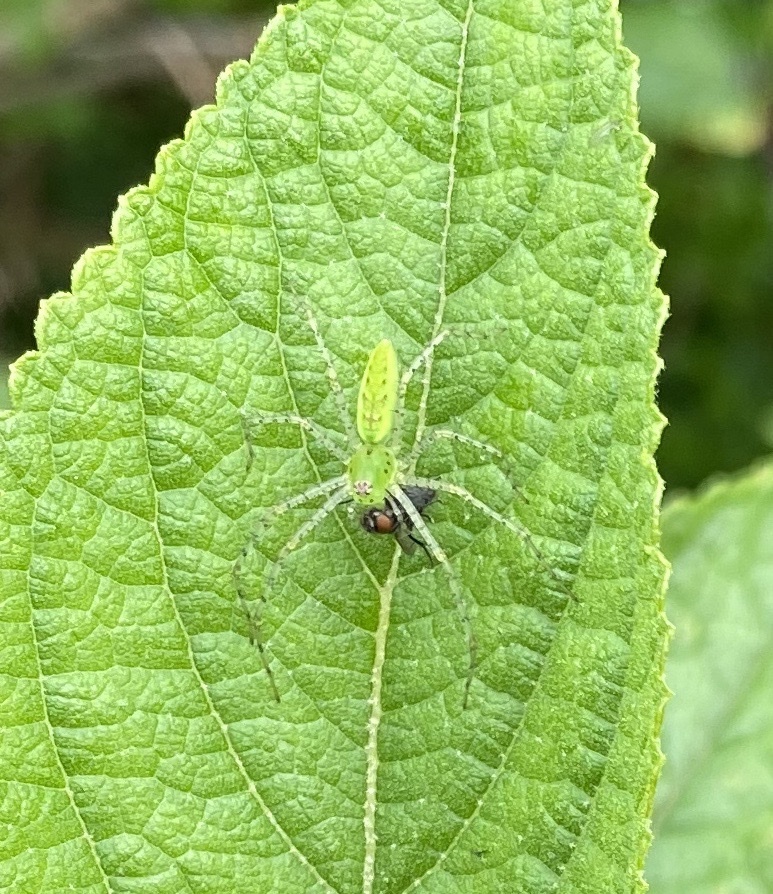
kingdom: Animalia
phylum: Arthropoda
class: Arachnida
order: Araneae
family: Oxyopidae
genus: Peucetia
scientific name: Peucetia viridans
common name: Lynx spiders
